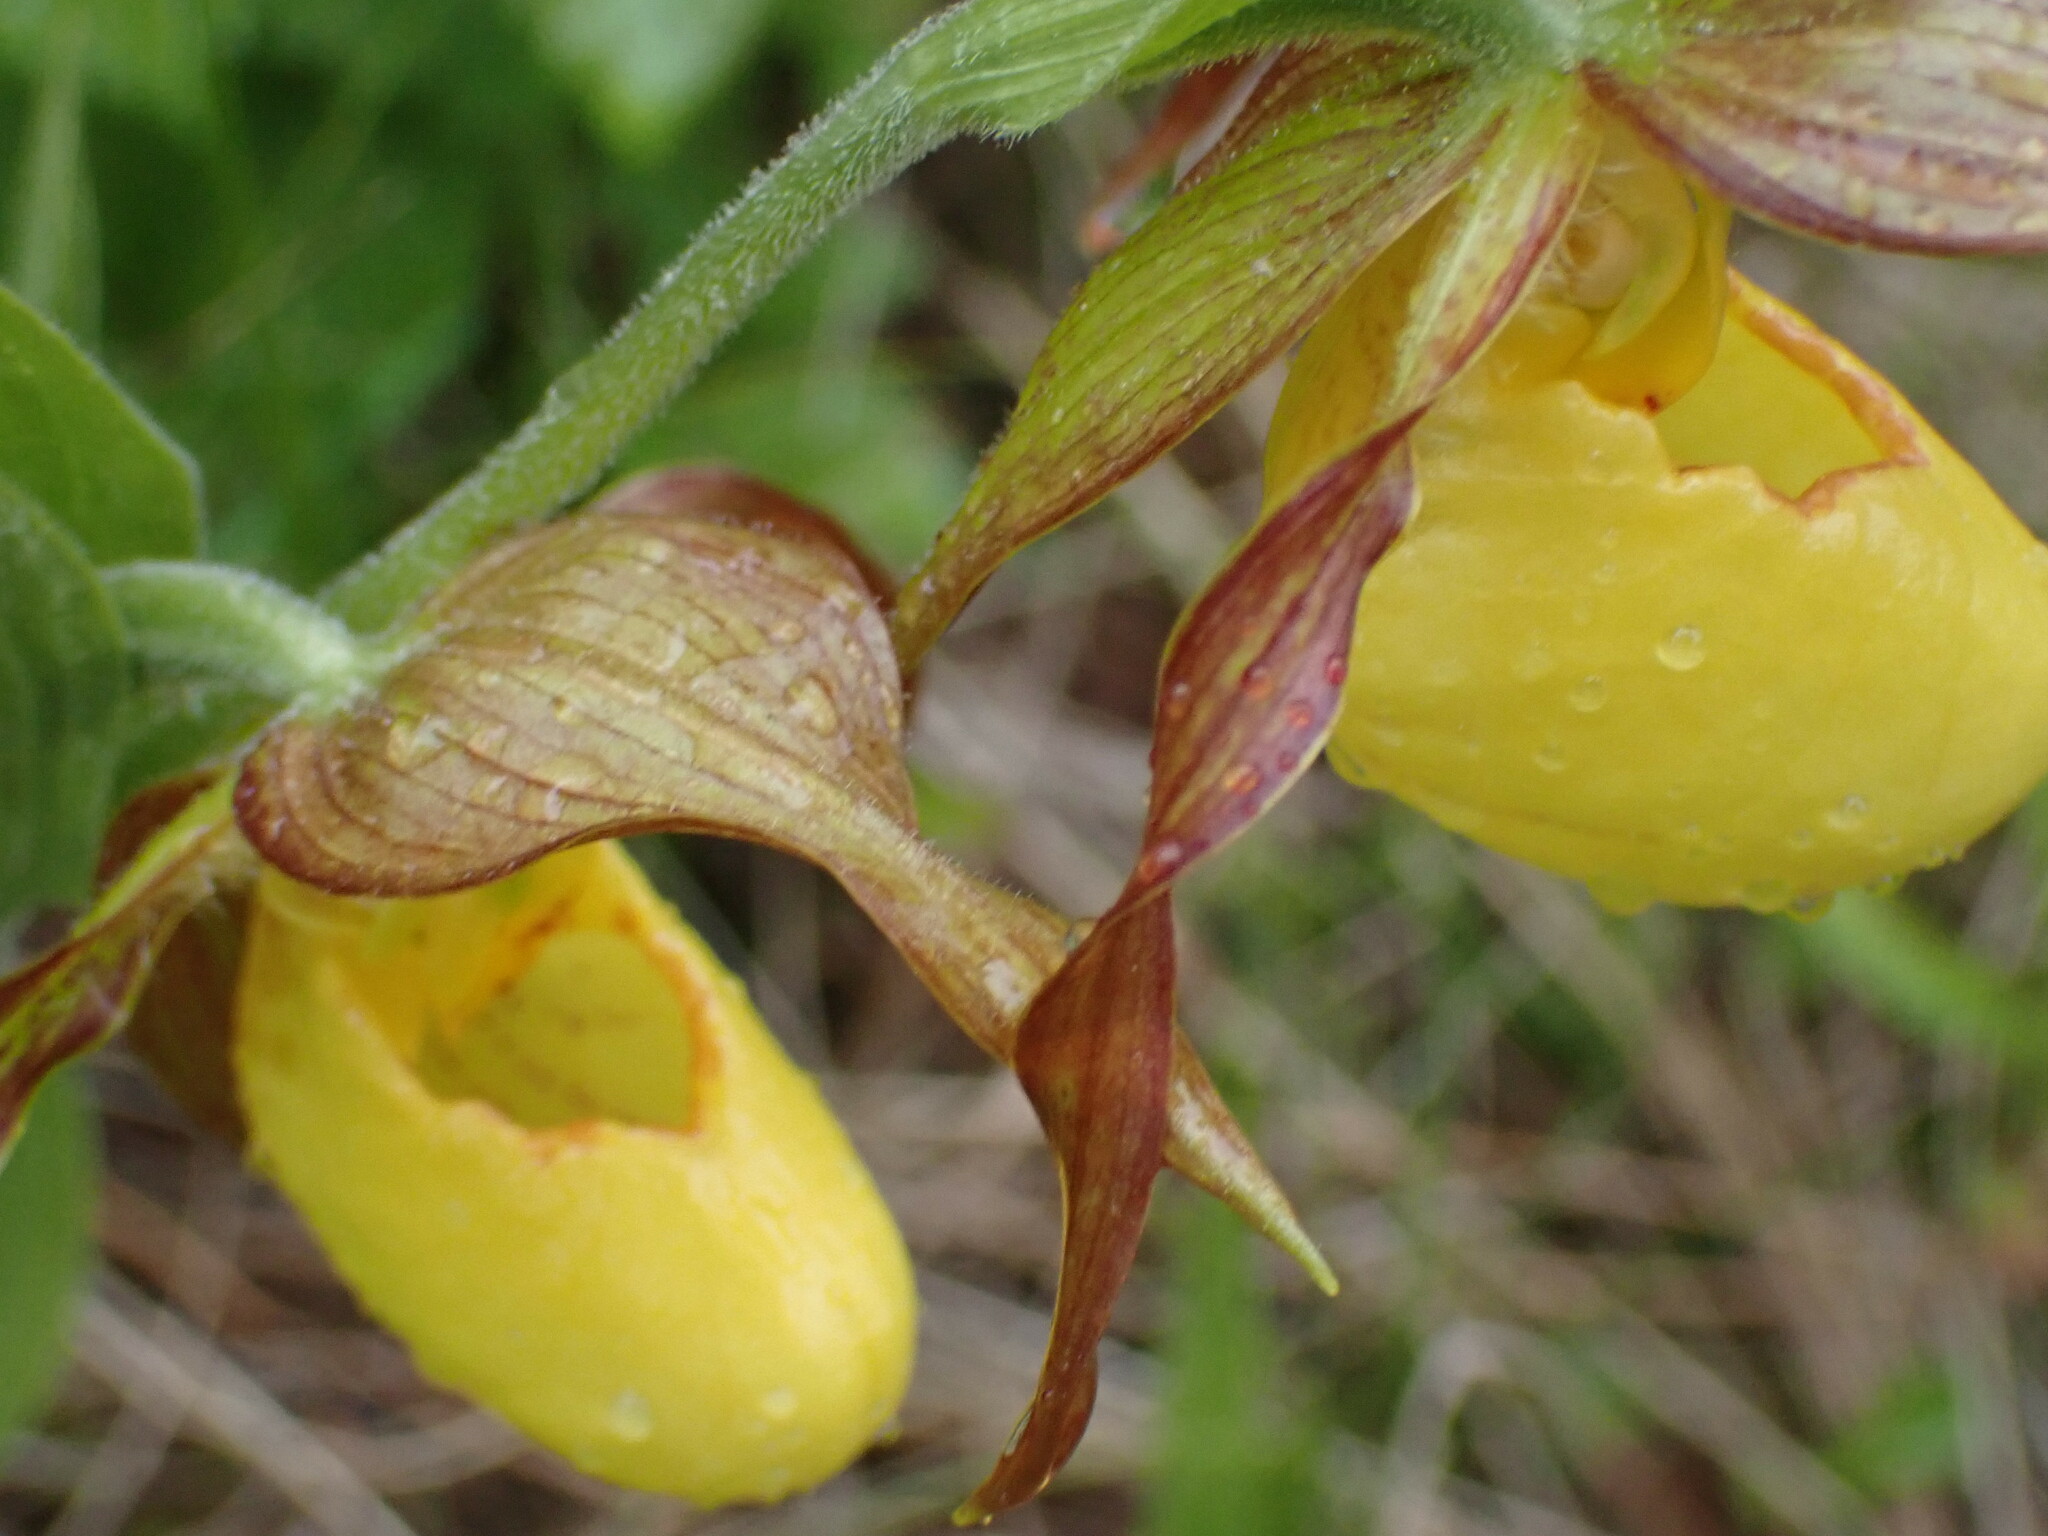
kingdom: Plantae
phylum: Tracheophyta
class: Liliopsida
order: Asparagales
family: Orchidaceae
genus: Cypripedium
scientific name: Cypripedium parviflorum
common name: American yellow lady's-slipper
